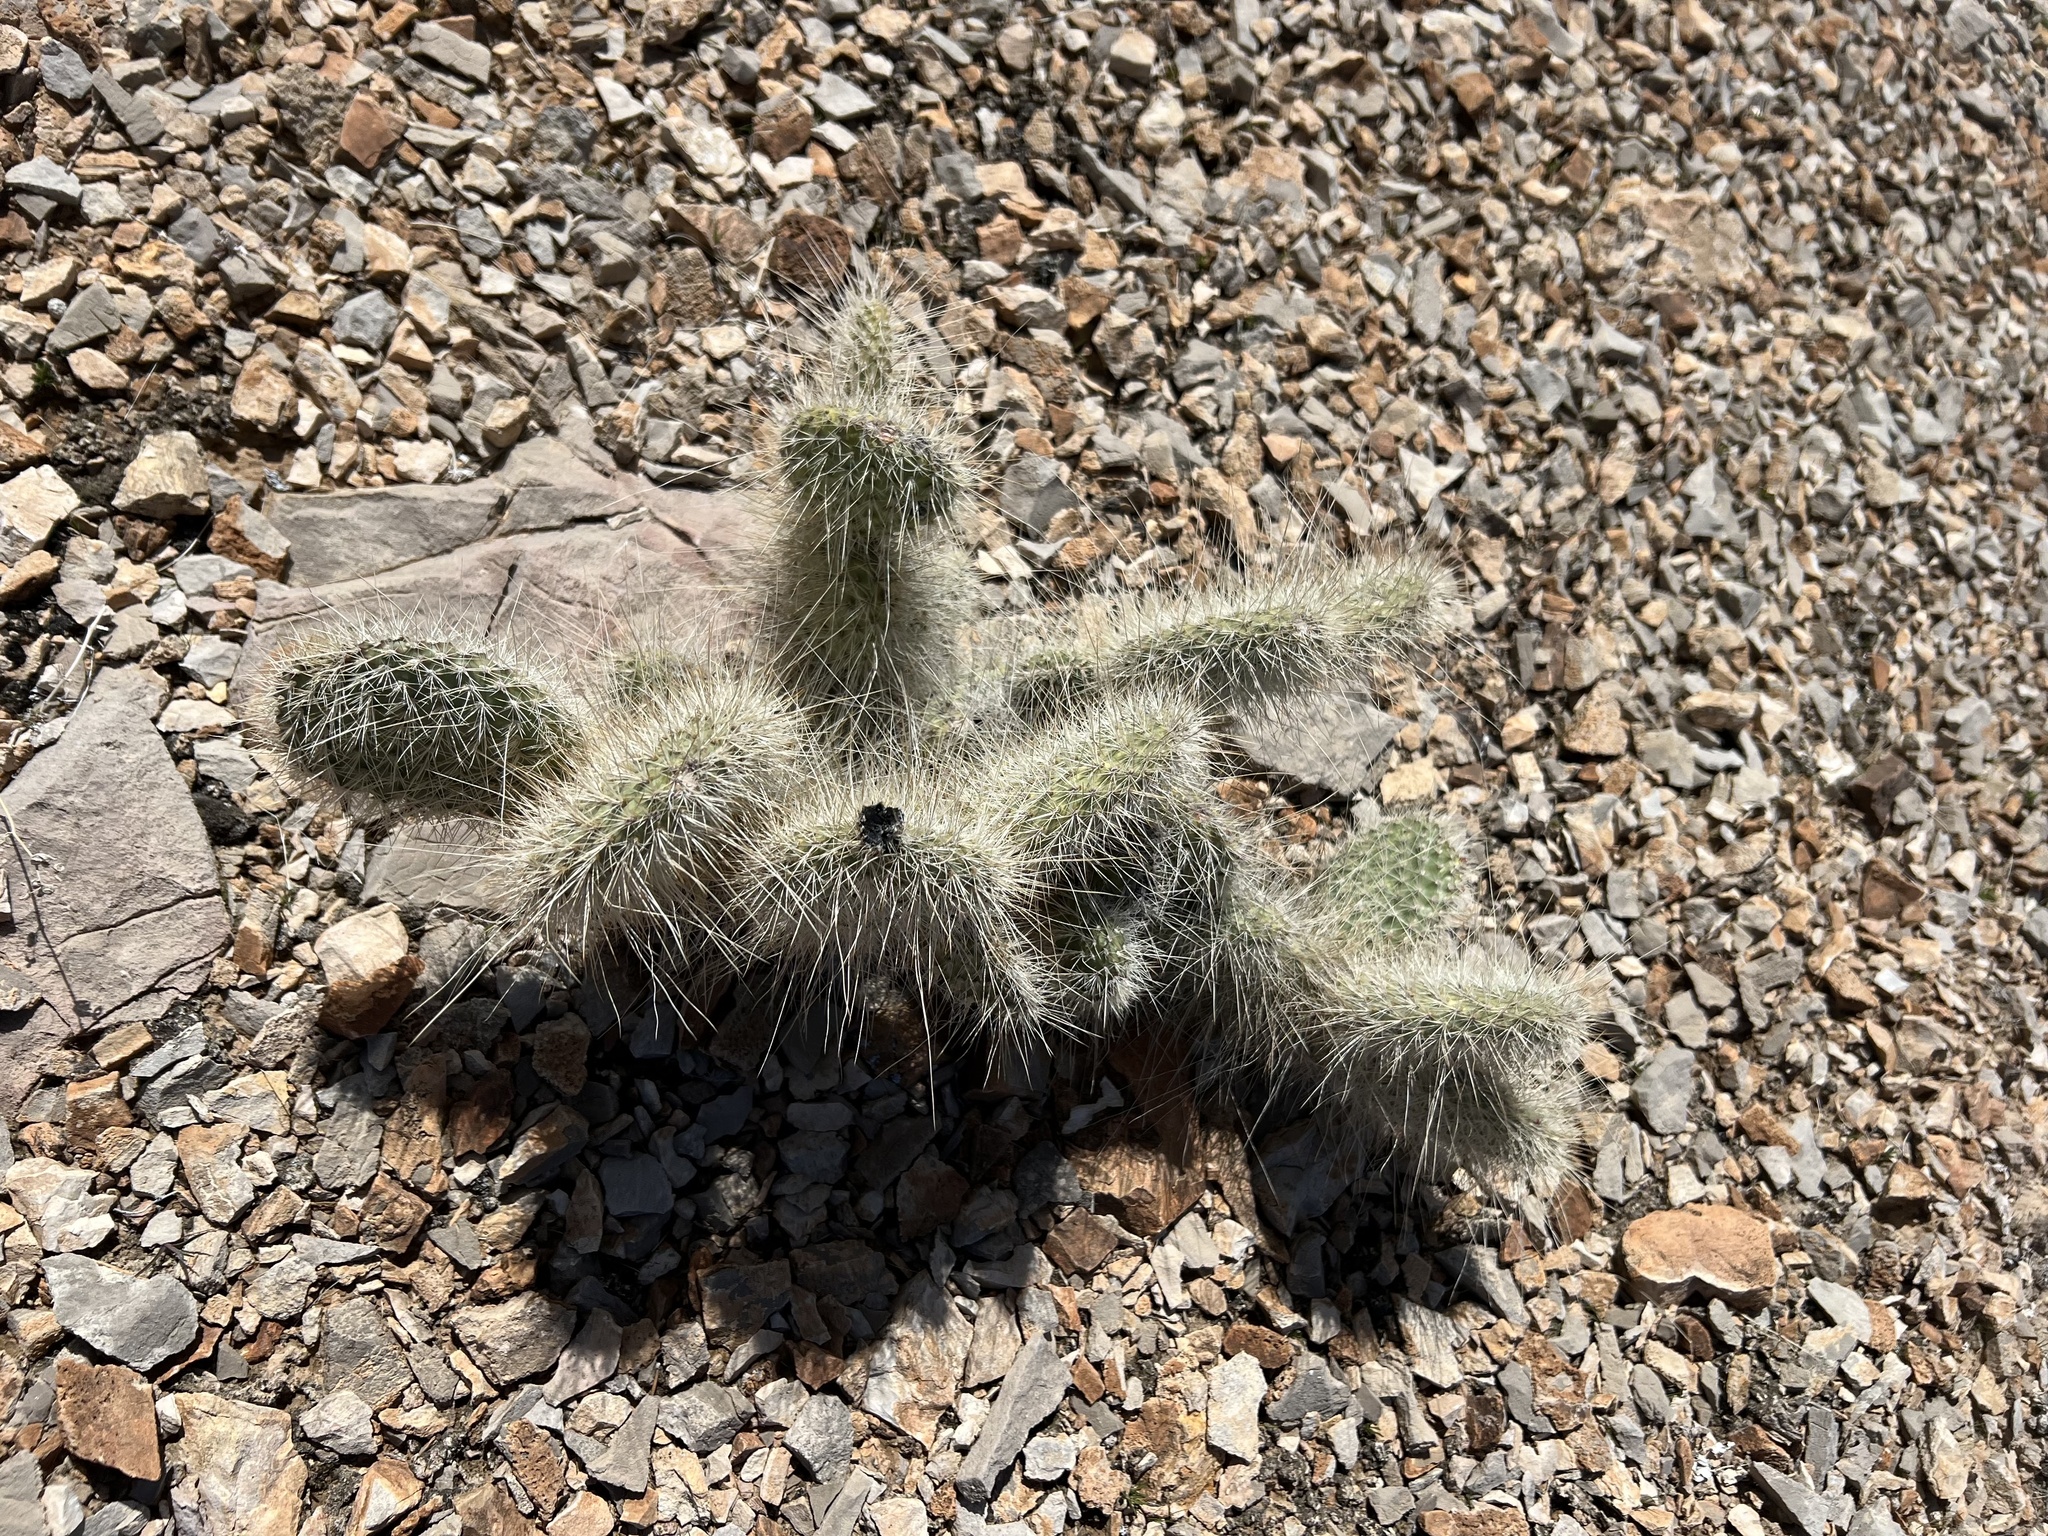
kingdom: Plantae
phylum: Tracheophyta
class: Magnoliopsida
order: Caryophyllales
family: Cactaceae
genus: Opuntia
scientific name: Opuntia polyacantha
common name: Plains prickly-pear
